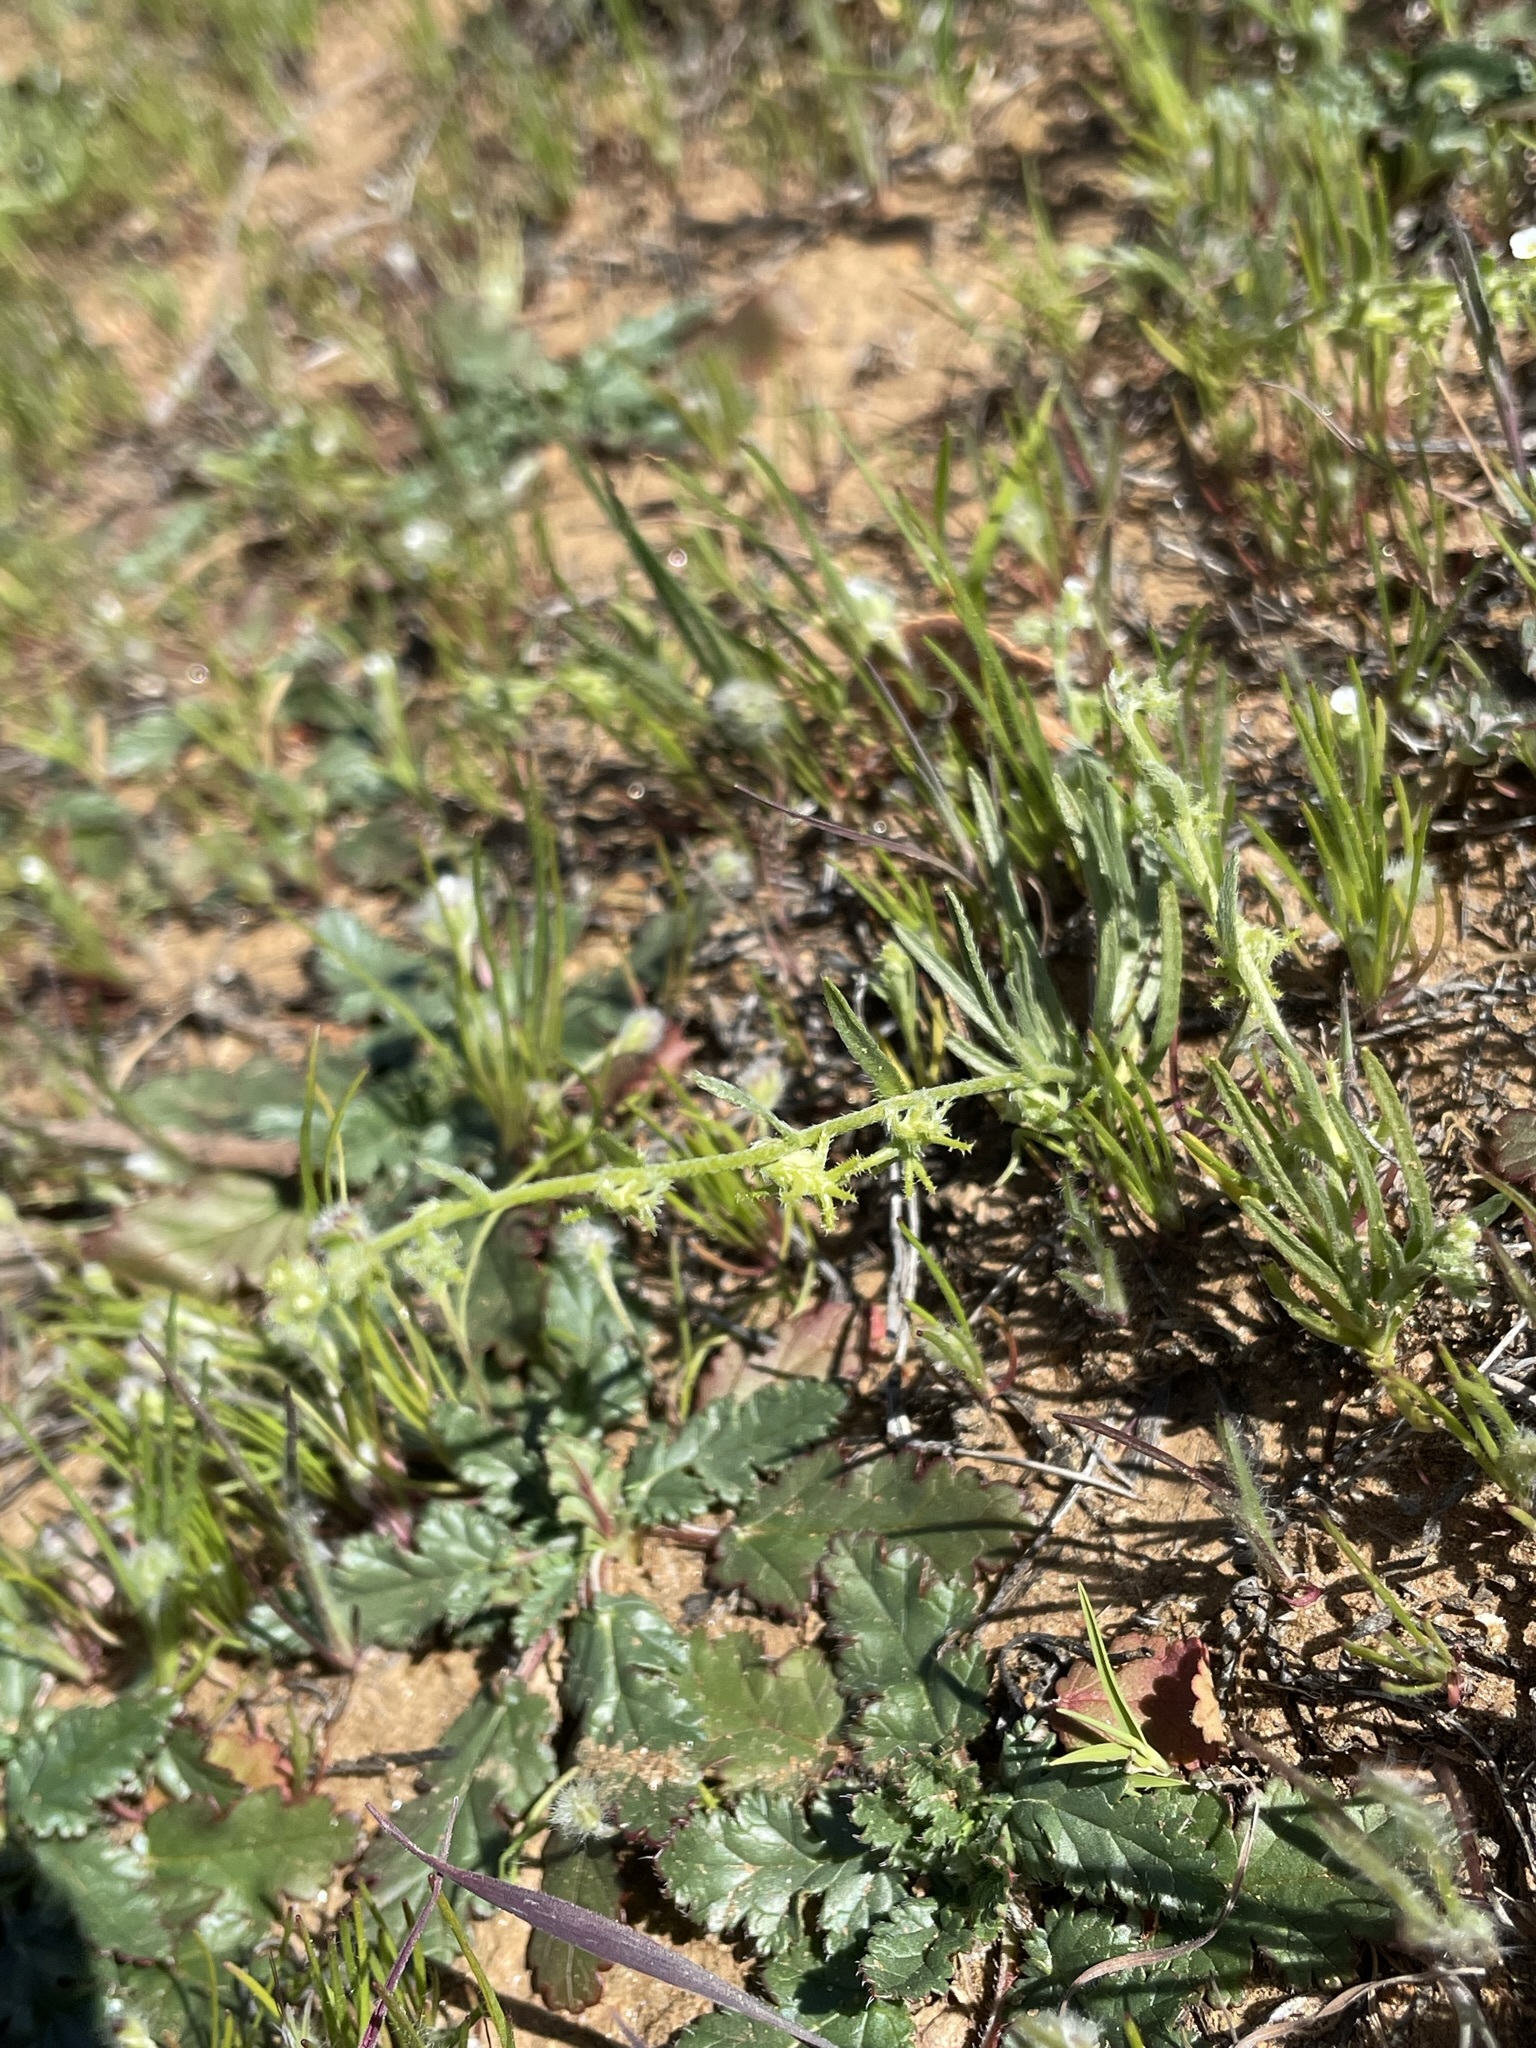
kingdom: Plantae
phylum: Tracheophyta
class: Magnoliopsida
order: Boraginales
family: Boraginaceae
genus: Harpagonella
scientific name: Harpagonella palmeri
